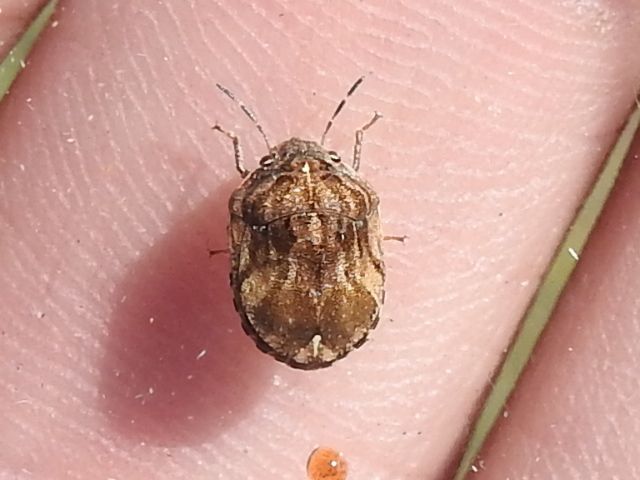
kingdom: Animalia
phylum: Arthropoda
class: Insecta
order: Hemiptera
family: Scutelleridae
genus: Homaemus
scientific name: Homaemus proteus
